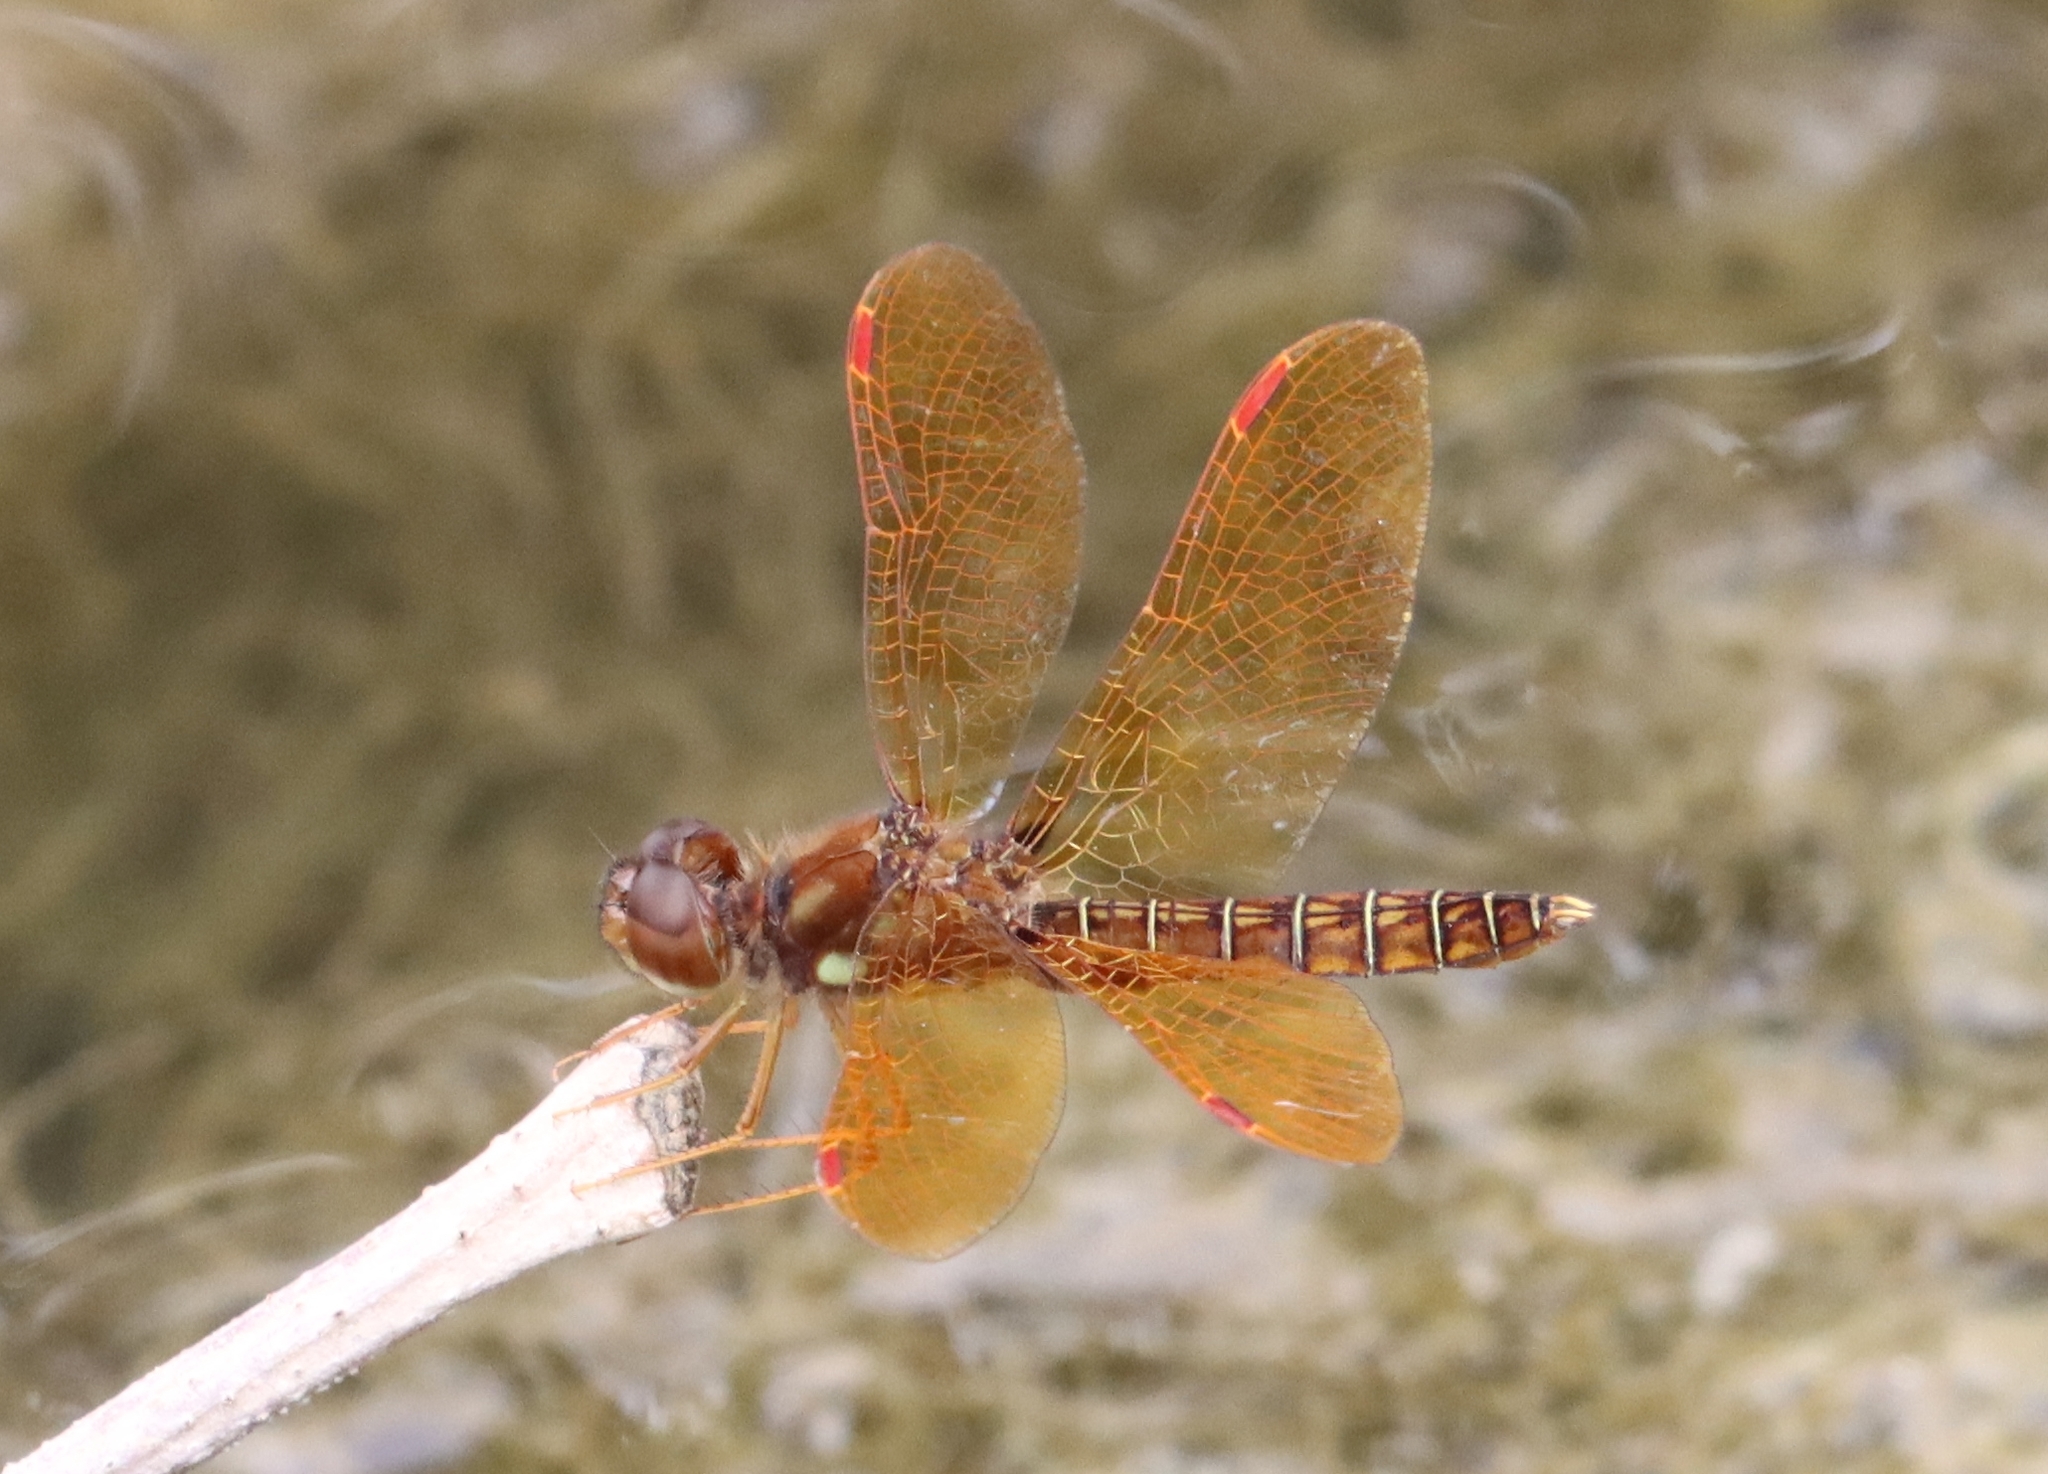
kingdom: Animalia
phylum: Arthropoda
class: Insecta
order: Odonata
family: Libellulidae
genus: Perithemis
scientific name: Perithemis tenera
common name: Eastern amberwing
